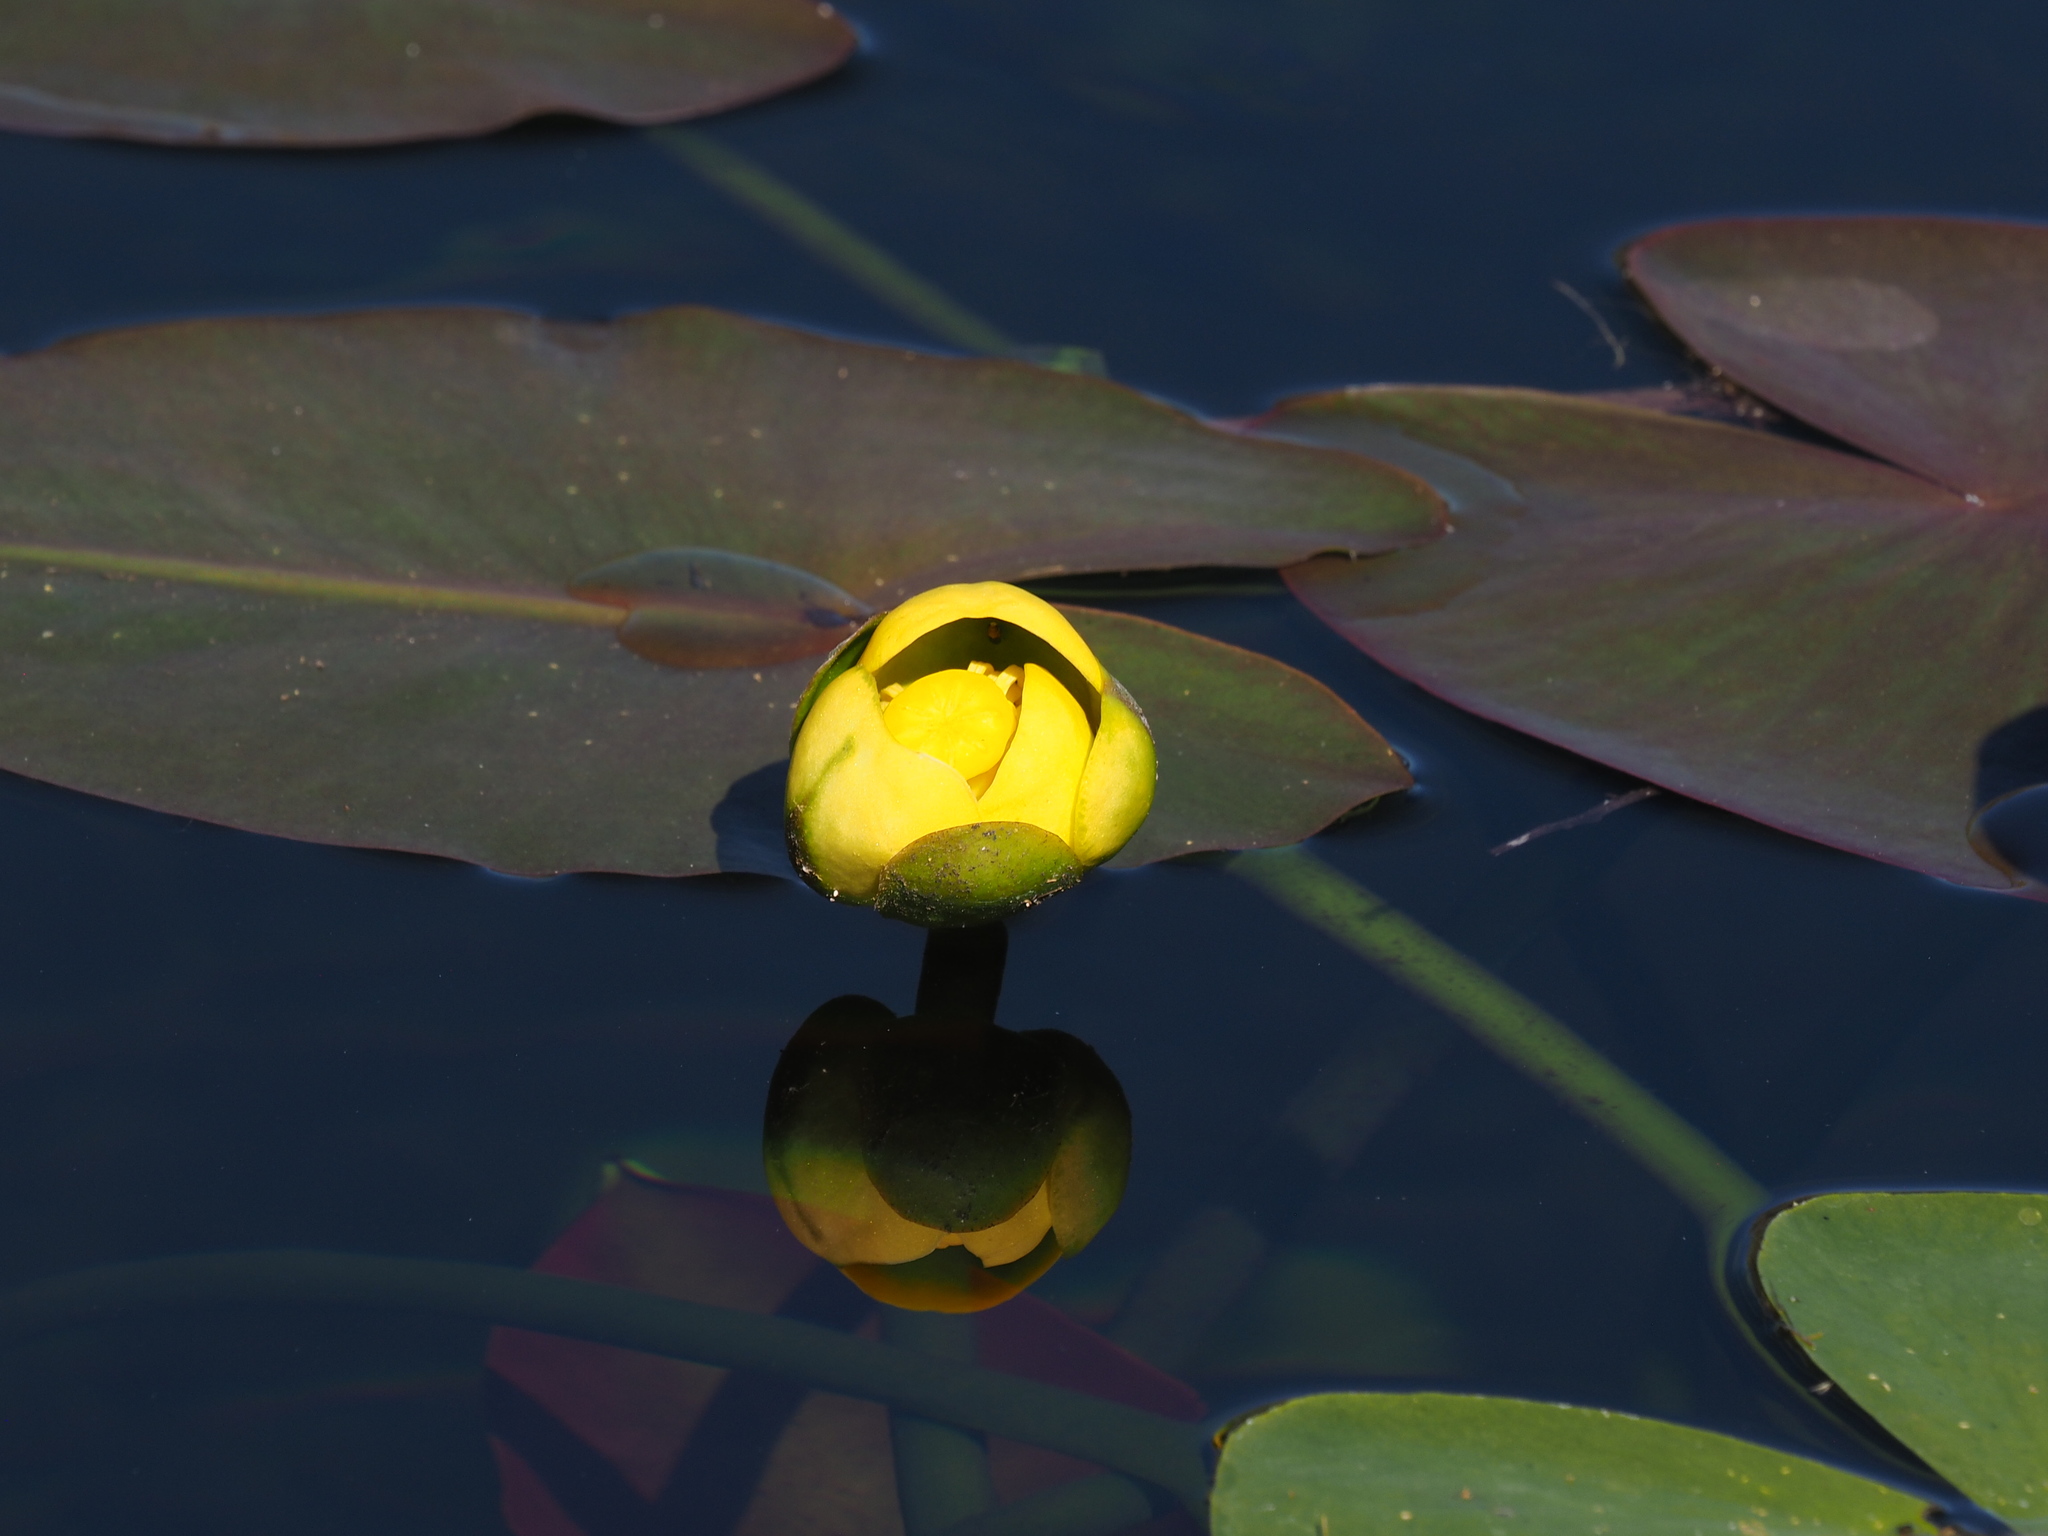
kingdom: Plantae
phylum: Tracheophyta
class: Magnoliopsida
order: Nymphaeales
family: Nymphaeaceae
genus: Nuphar
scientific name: Nuphar advena
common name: Spatter-dock
